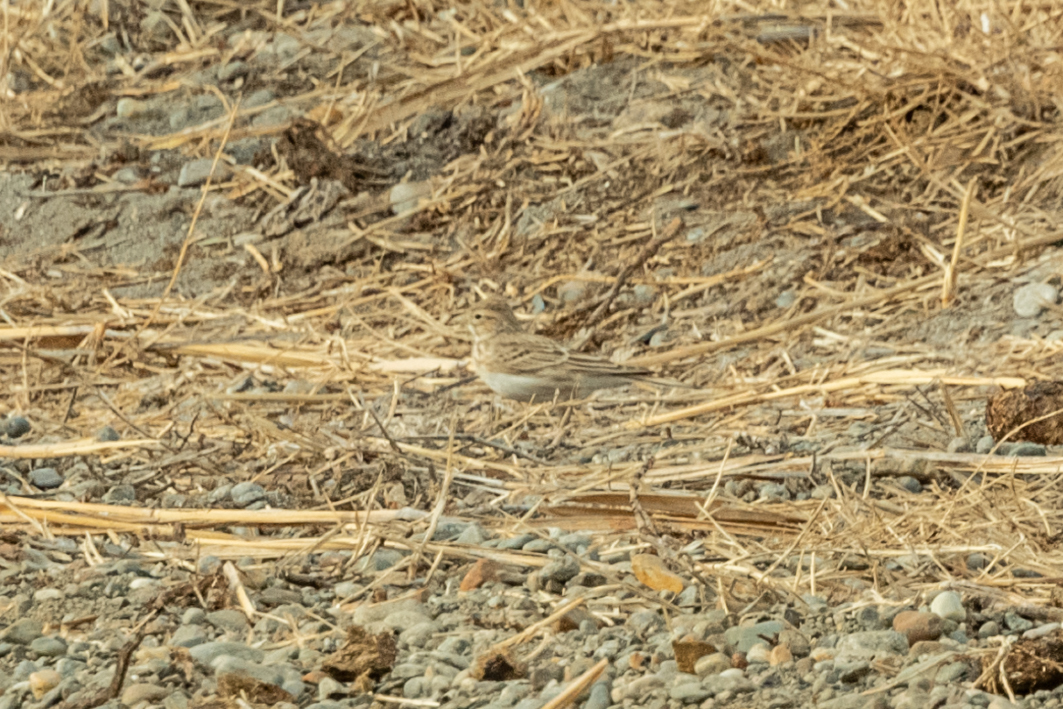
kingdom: Animalia
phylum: Chordata
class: Aves
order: Passeriformes
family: Alaudidae
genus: Calandrella
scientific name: Calandrella rufescens
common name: Lesser short-toed lark
